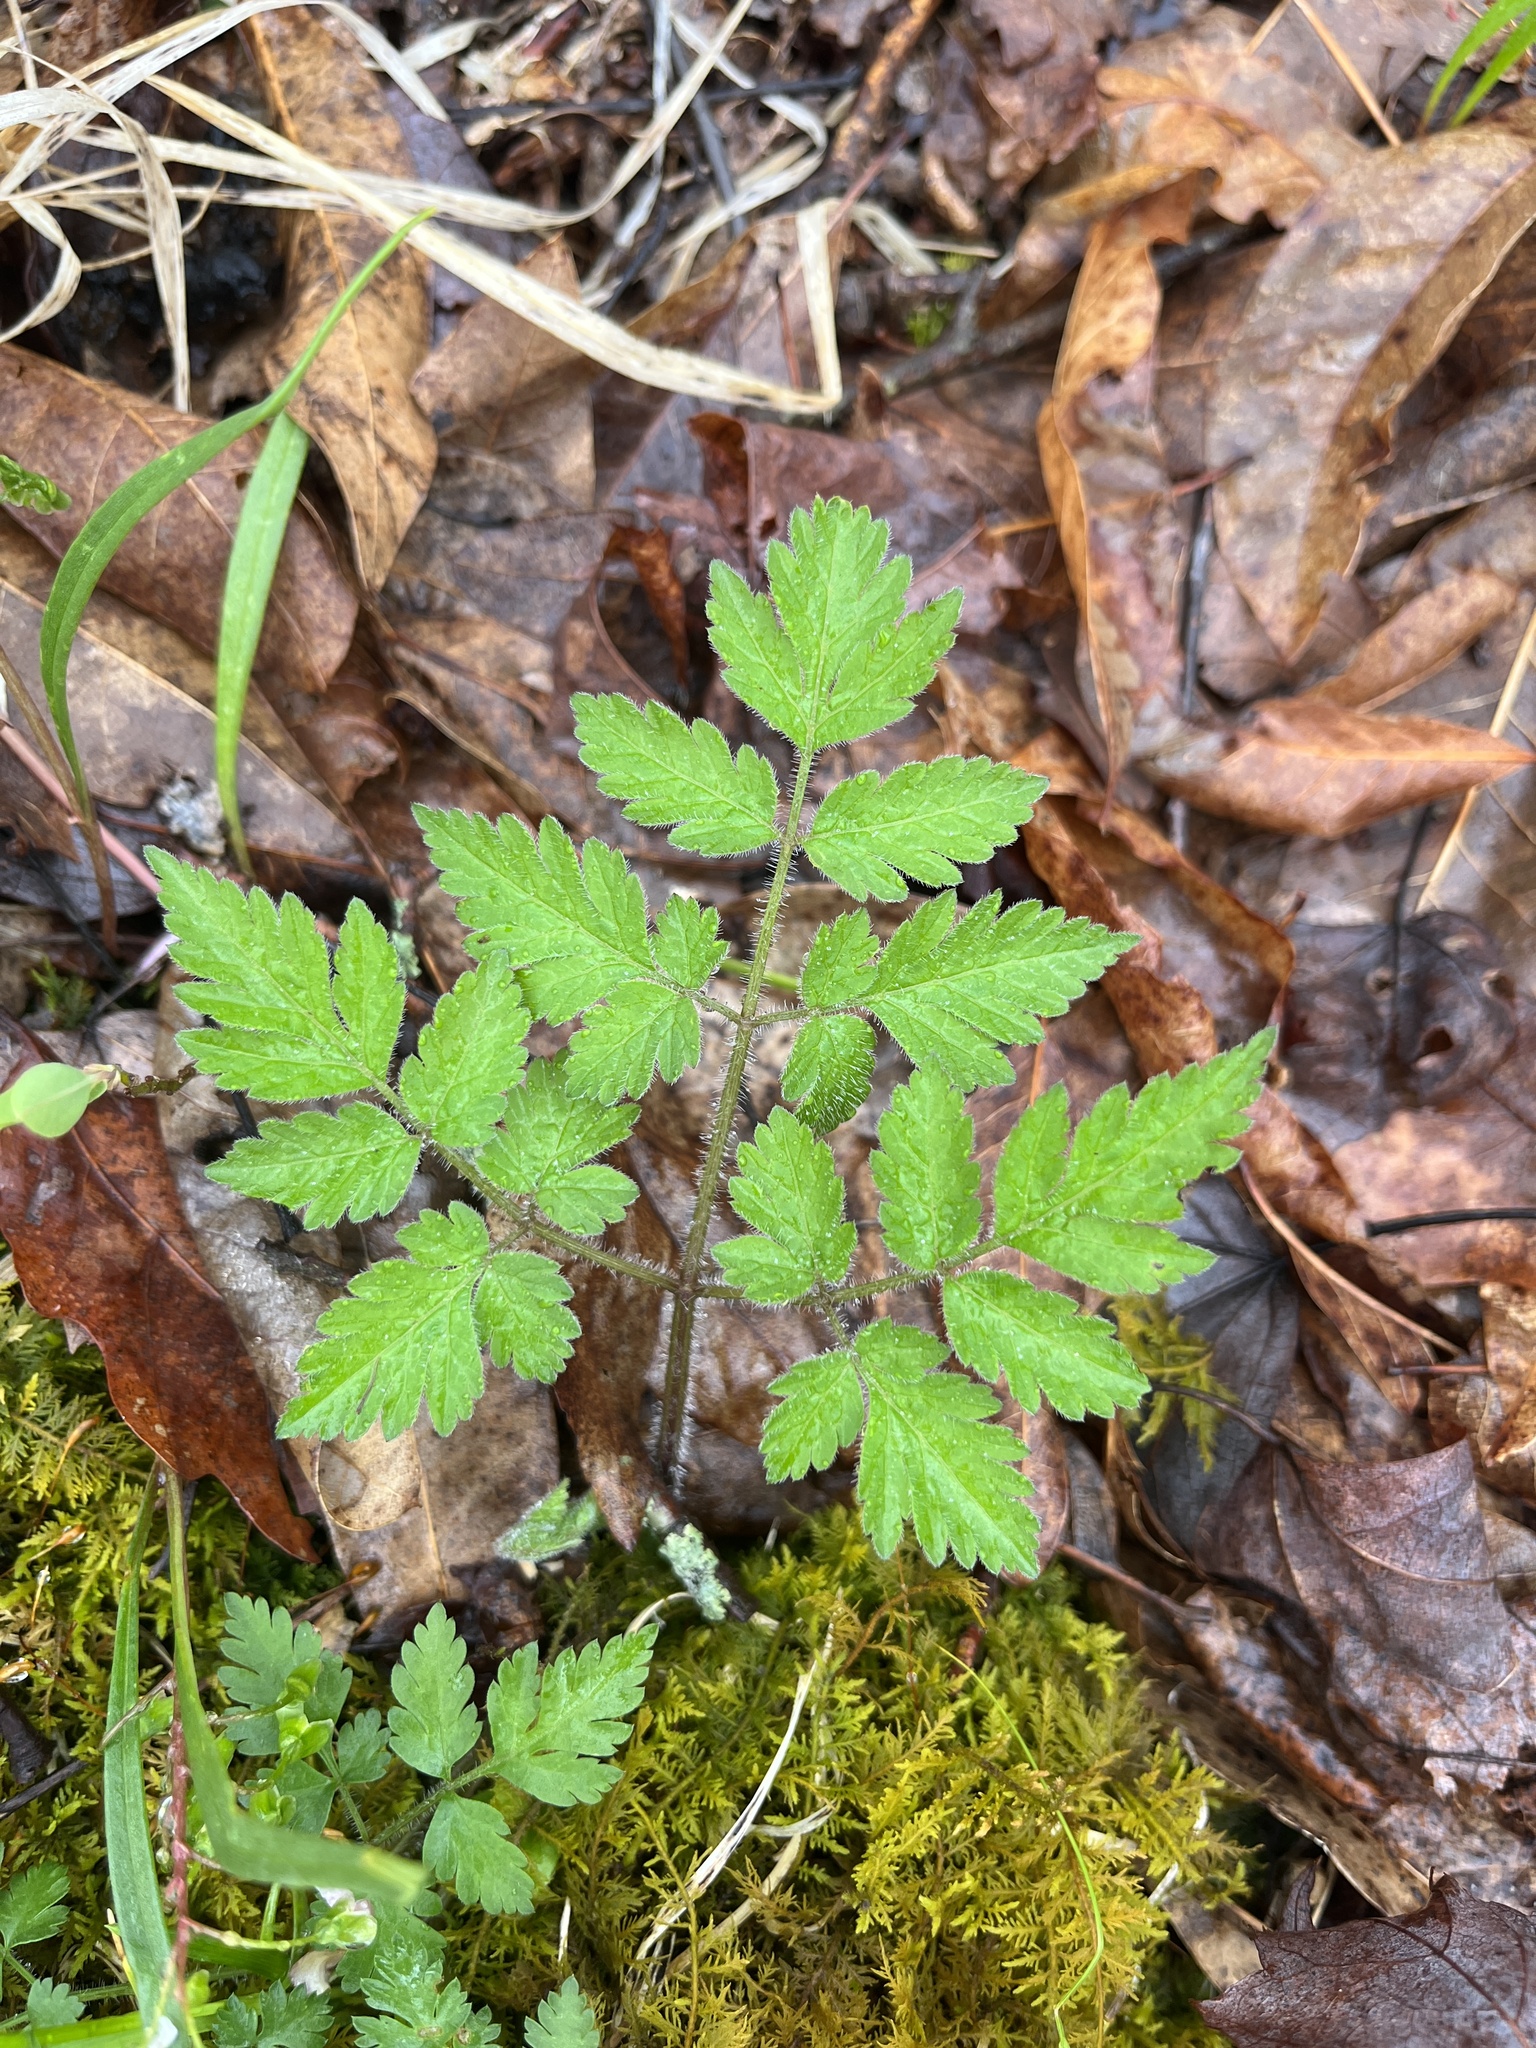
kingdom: Plantae
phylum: Tracheophyta
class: Magnoliopsida
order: Apiales
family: Apiaceae
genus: Osmorhiza
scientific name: Osmorhiza claytonii
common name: Hairy sweet cicely
